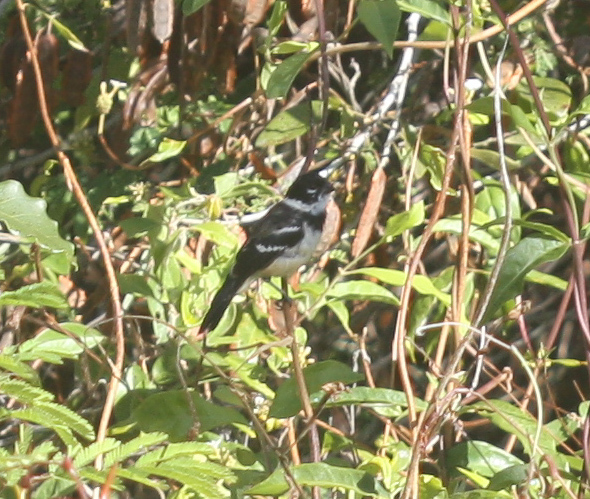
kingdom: Animalia
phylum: Chordata
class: Aves
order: Passeriformes
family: Thraupidae
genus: Sporophila
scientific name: Sporophila morelleti
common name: Morelet's seedeater
